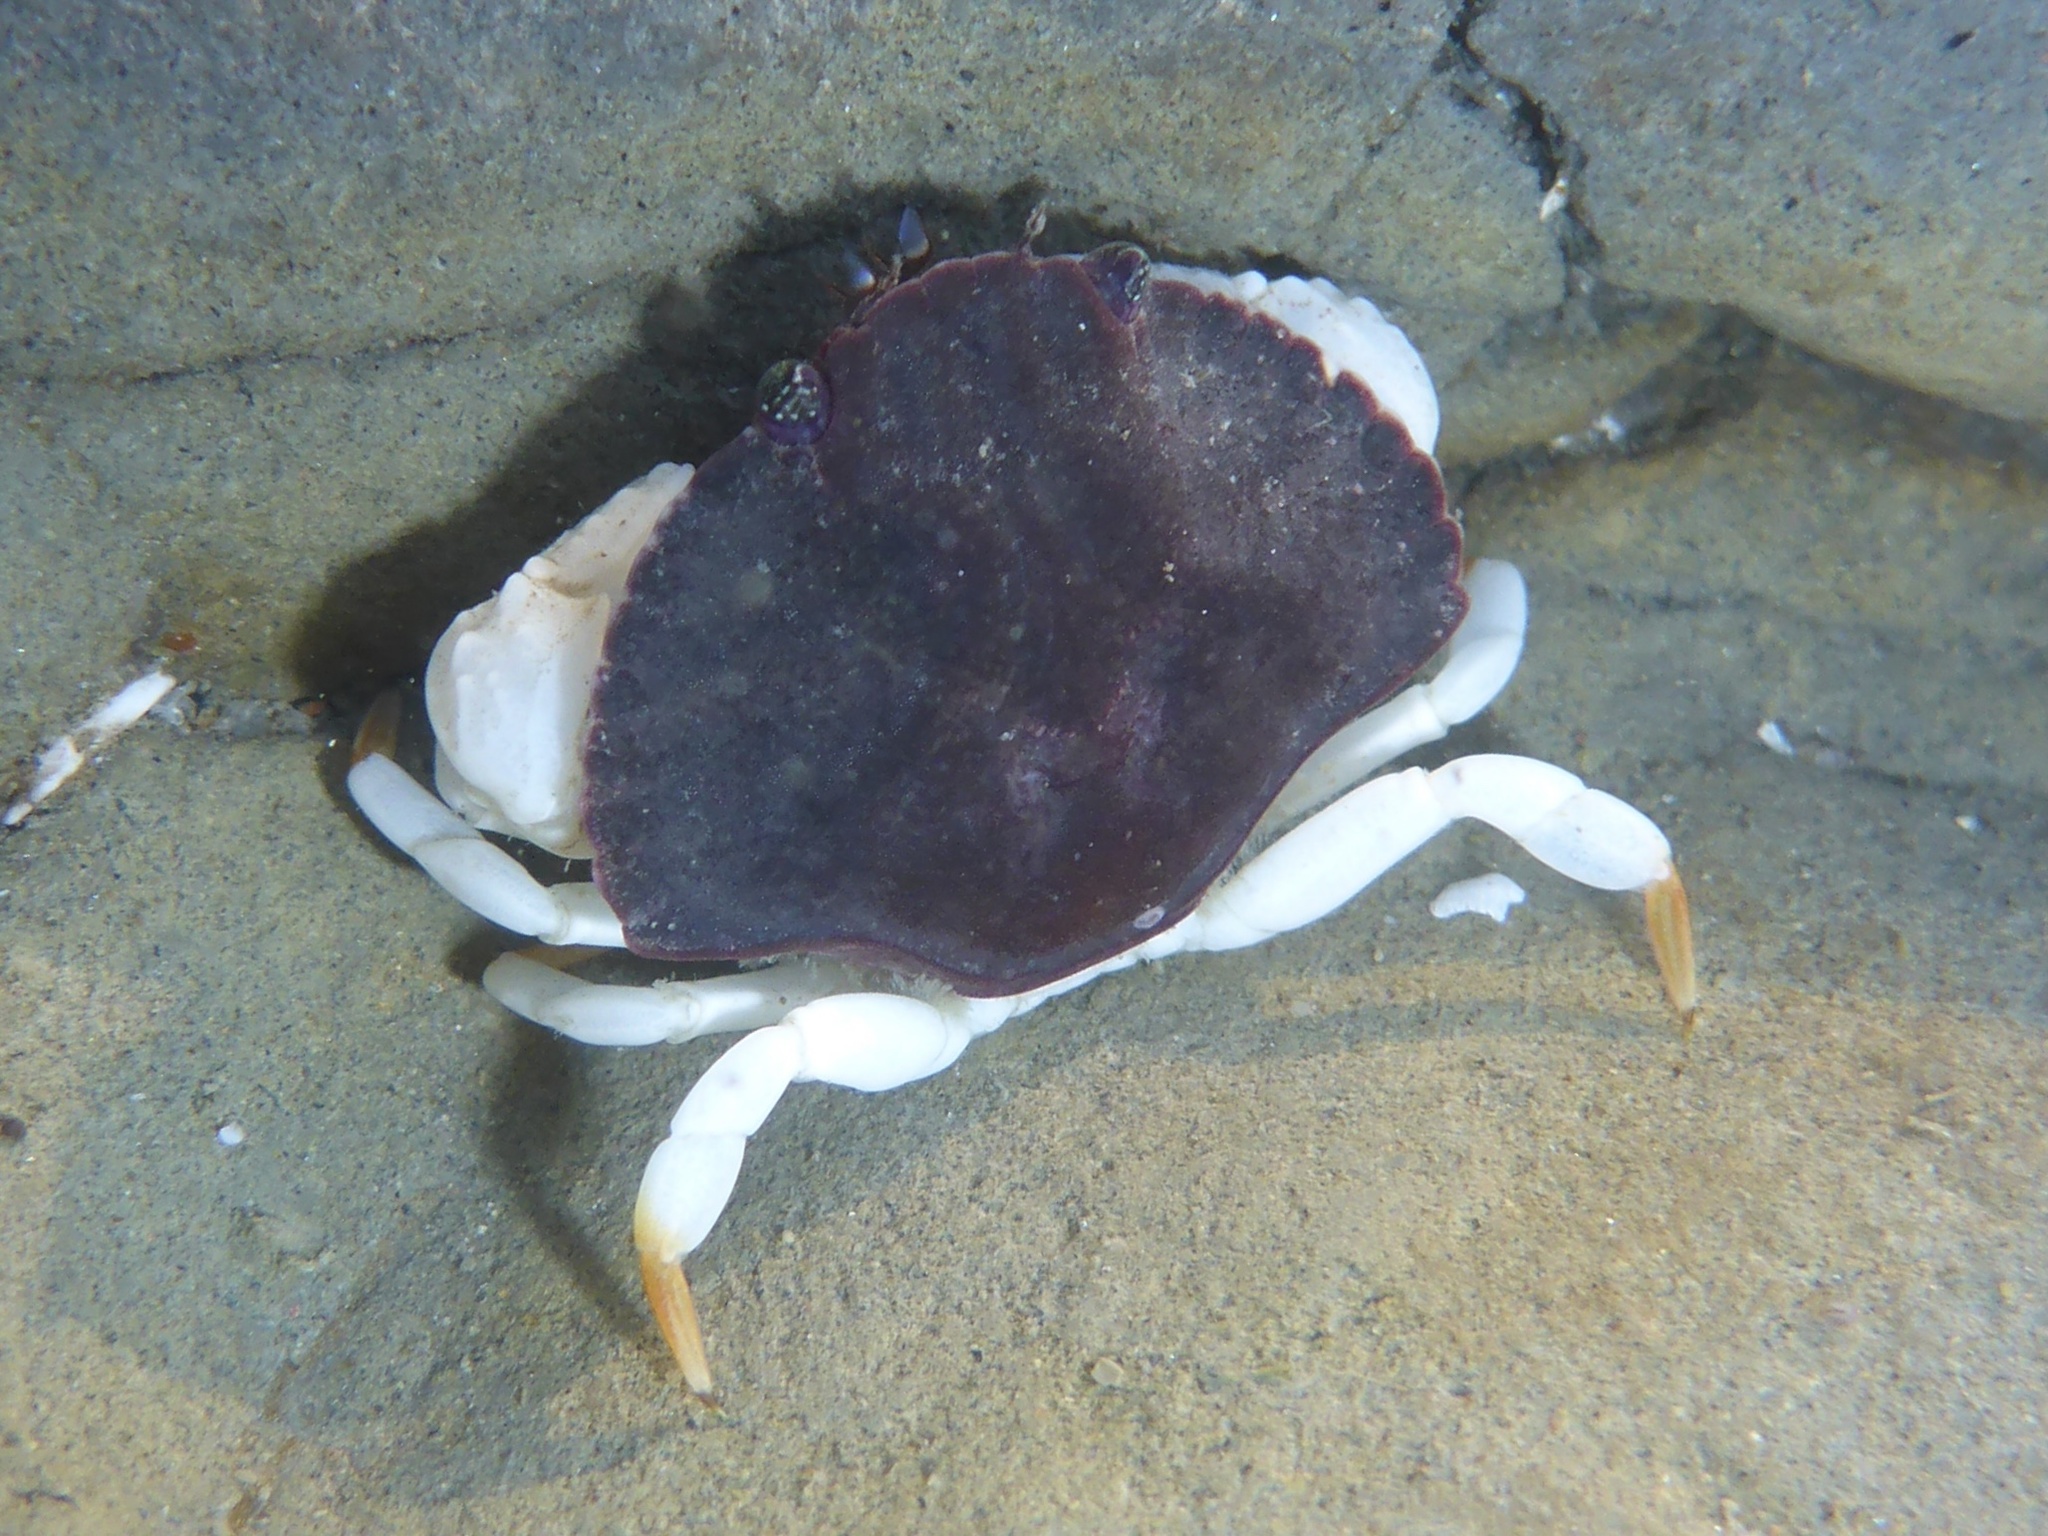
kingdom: Animalia
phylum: Arthropoda
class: Malacostraca
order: Decapoda
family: Cancridae
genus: Cancer
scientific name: Cancer productus
